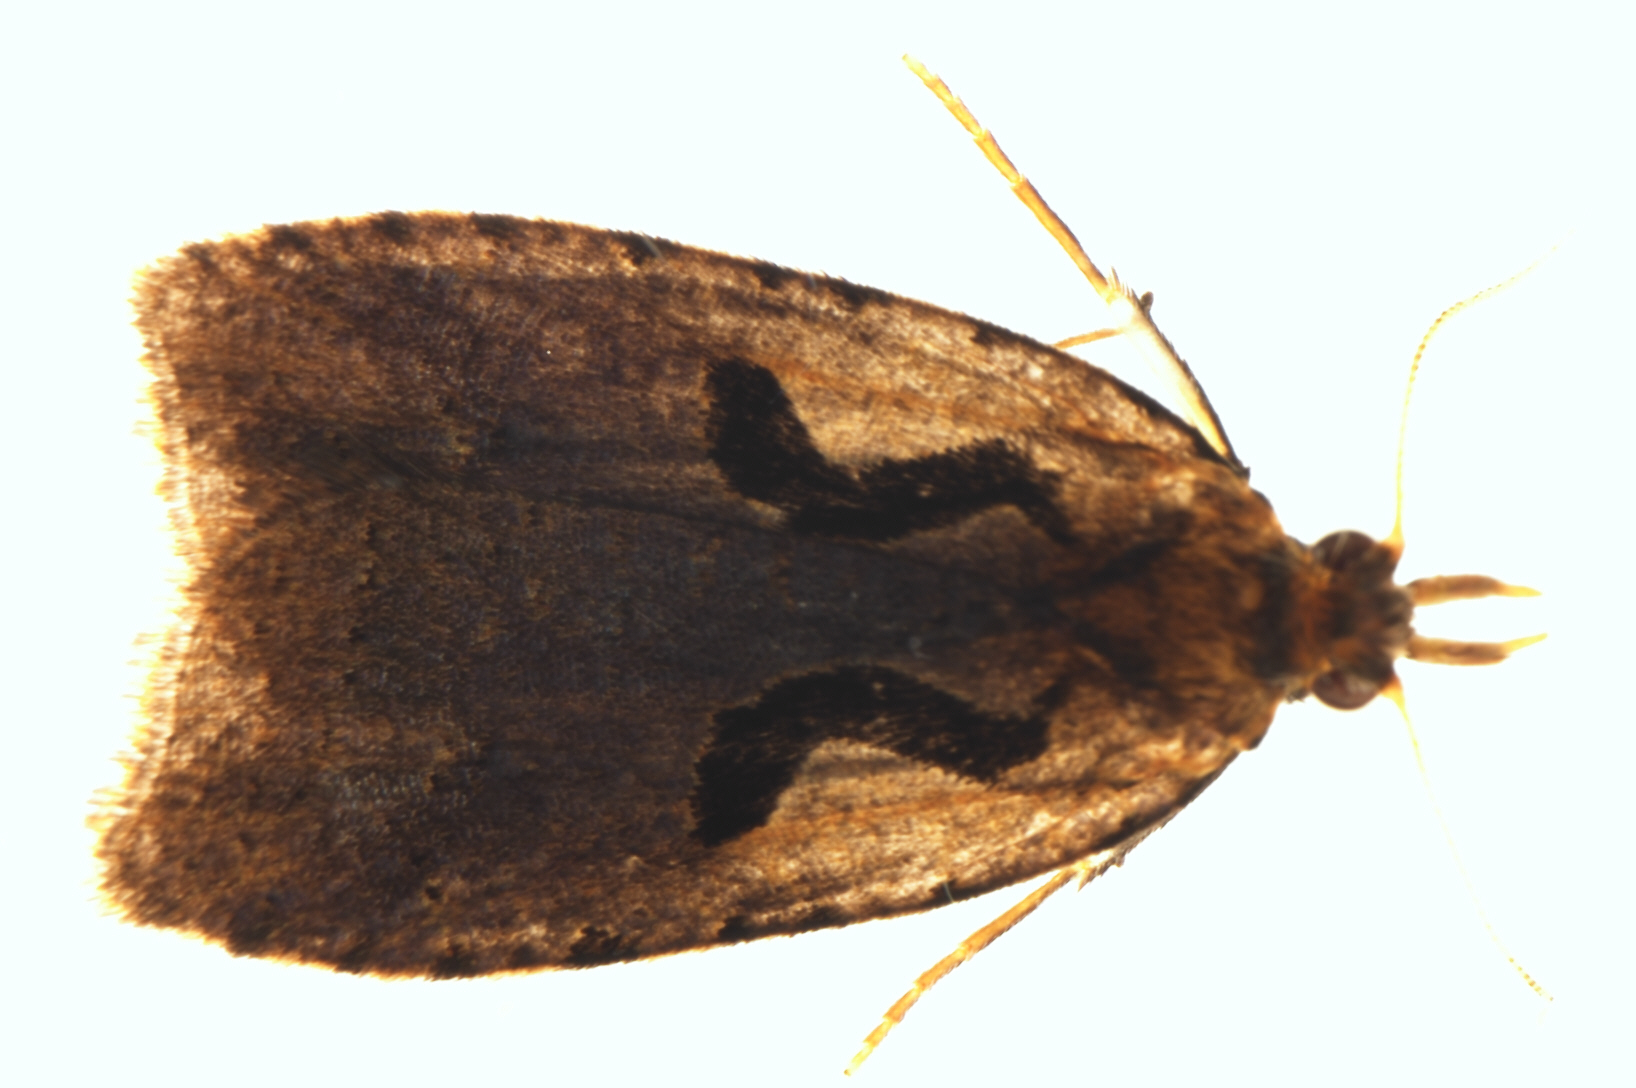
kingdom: Animalia
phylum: Arthropoda
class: Insecta
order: Lepidoptera
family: Tortricidae
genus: Cnephasia
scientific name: Cnephasia jactatana
